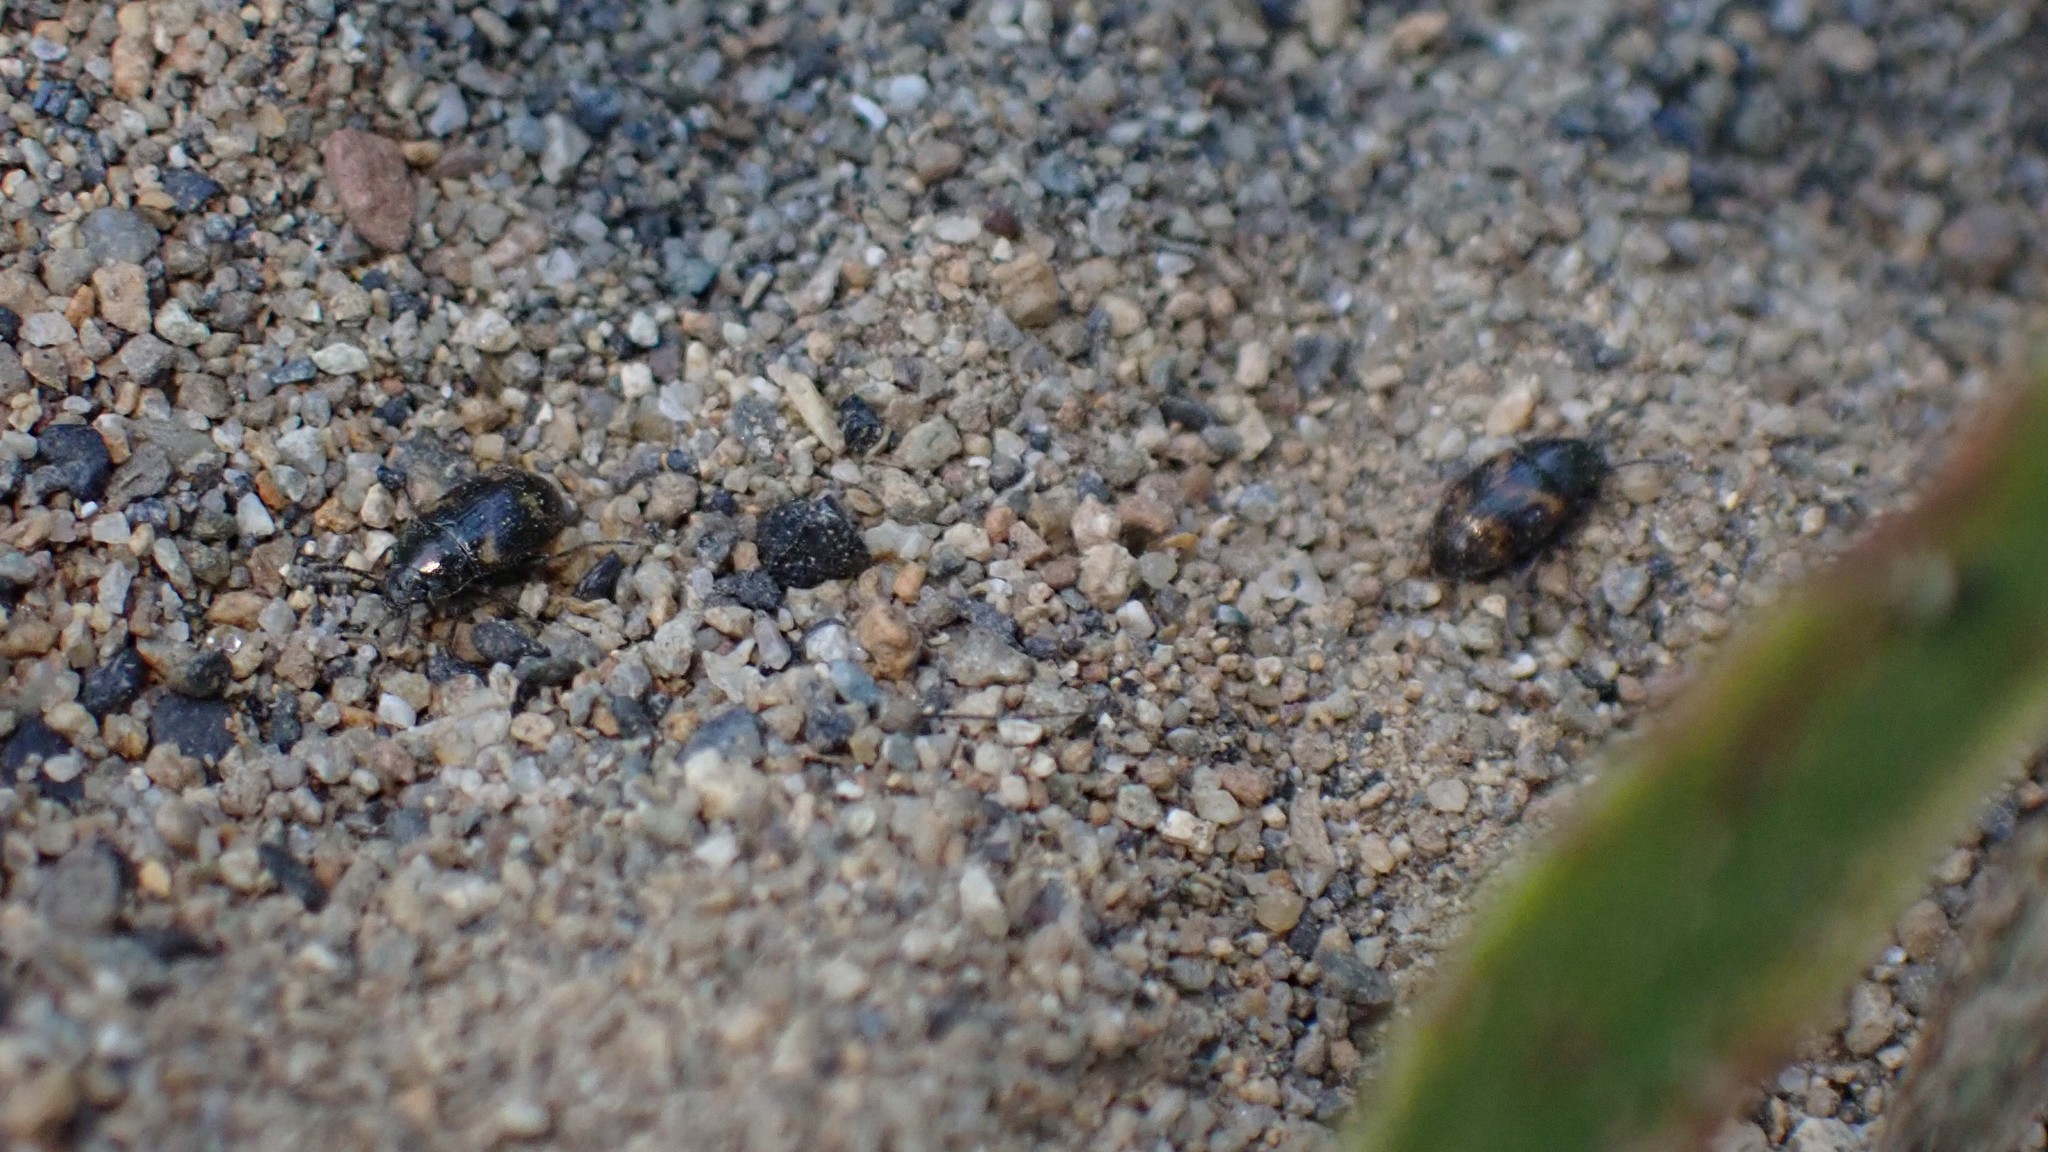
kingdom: Animalia
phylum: Arthropoda
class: Insecta
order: Coleoptera
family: Tenebrionidae
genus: Phaleromela
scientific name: Phaleromela variegata
